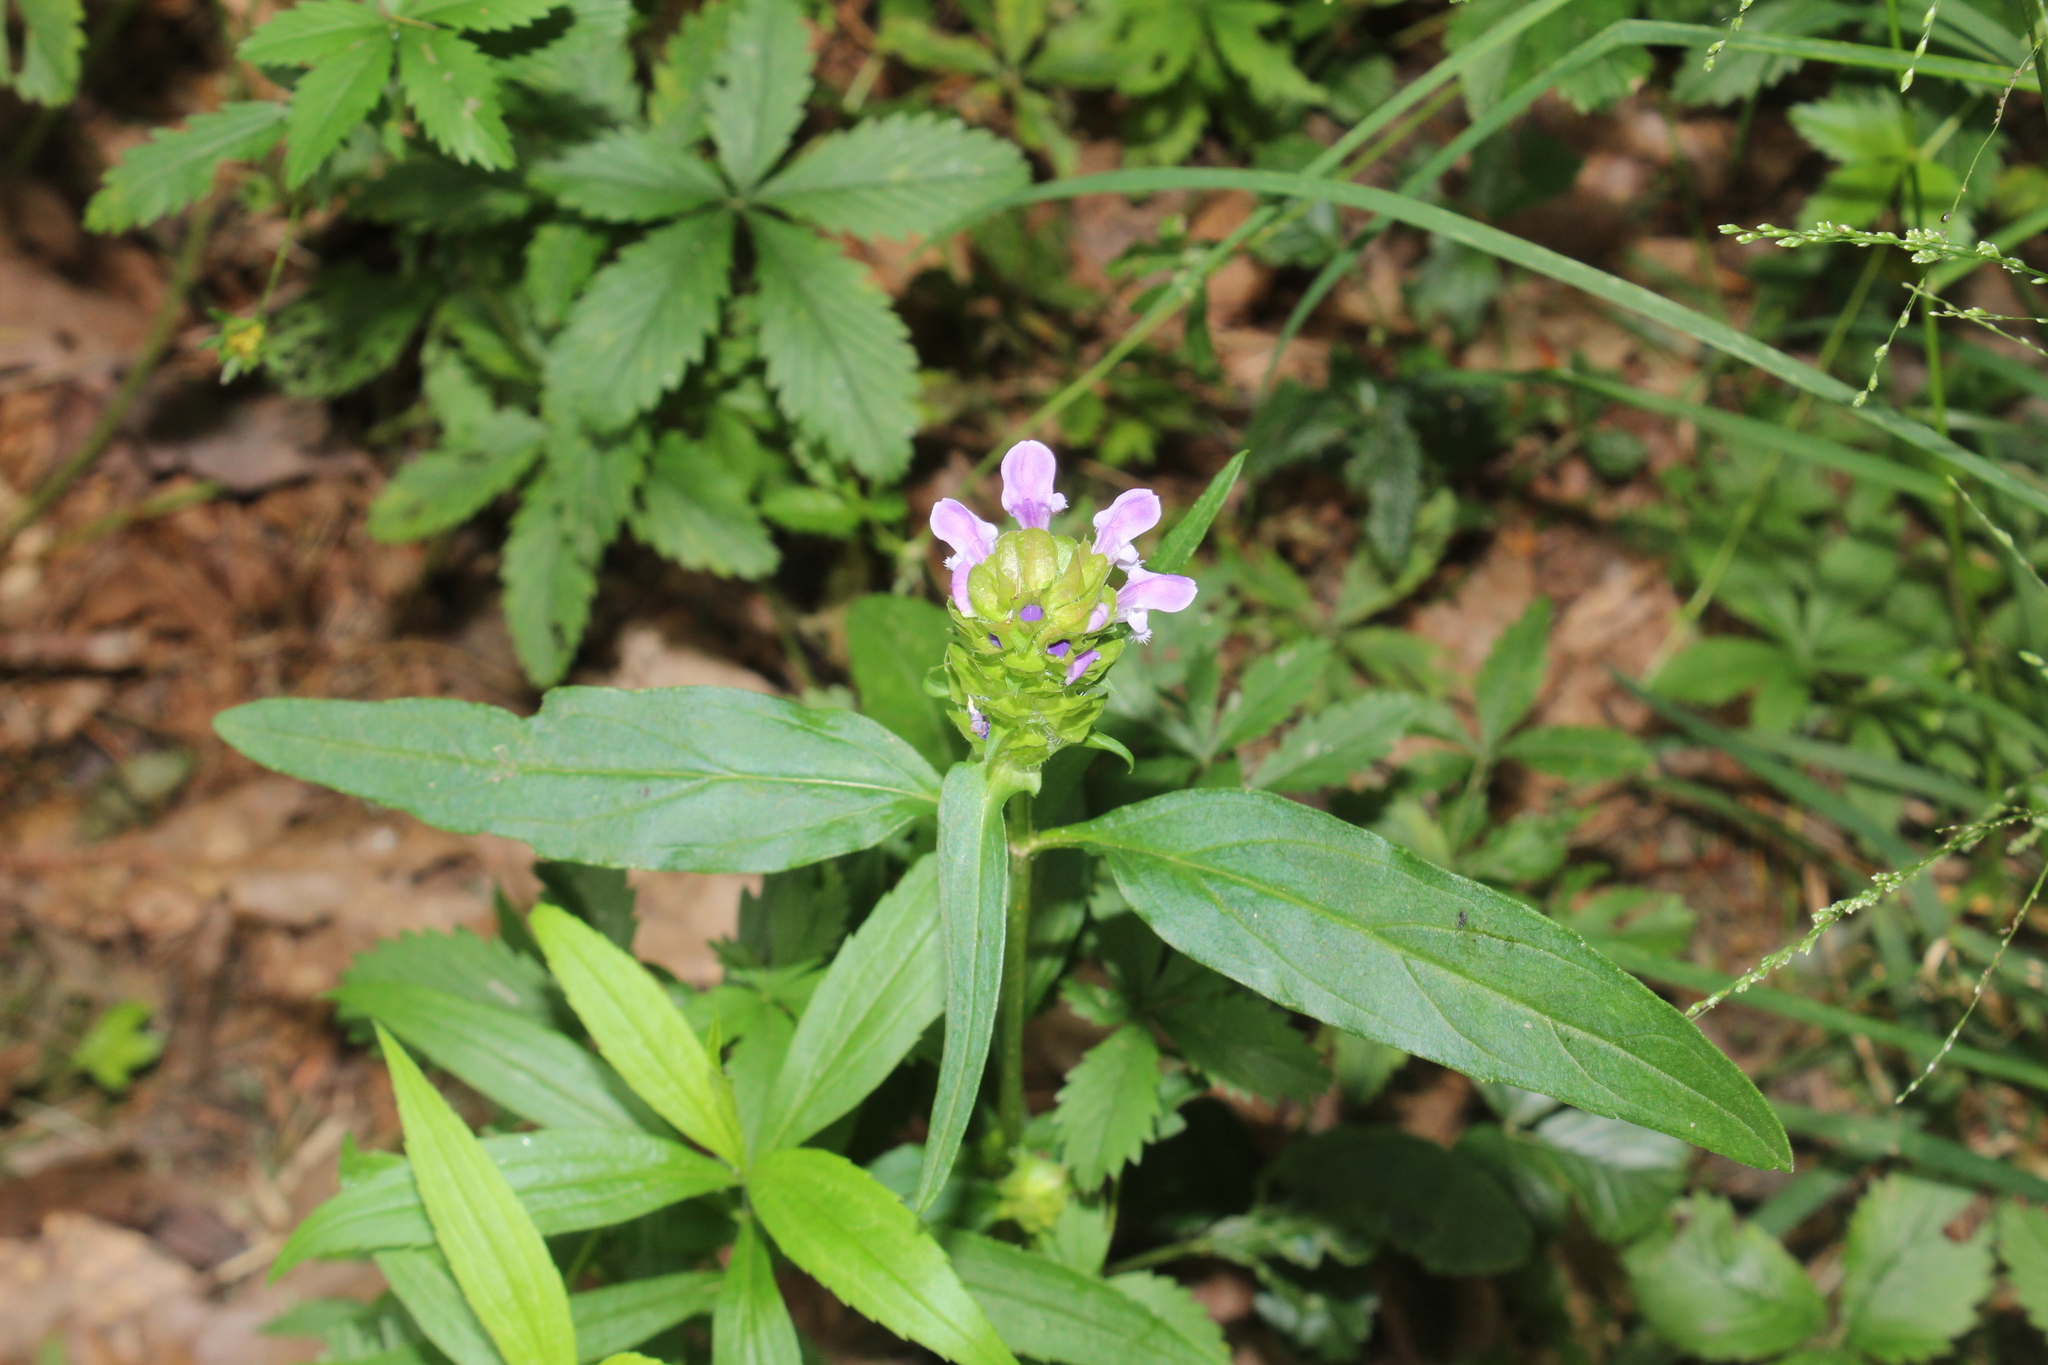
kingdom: Plantae
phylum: Tracheophyta
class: Magnoliopsida
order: Lamiales
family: Lamiaceae
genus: Prunella
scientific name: Prunella vulgaris
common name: Heal-all
